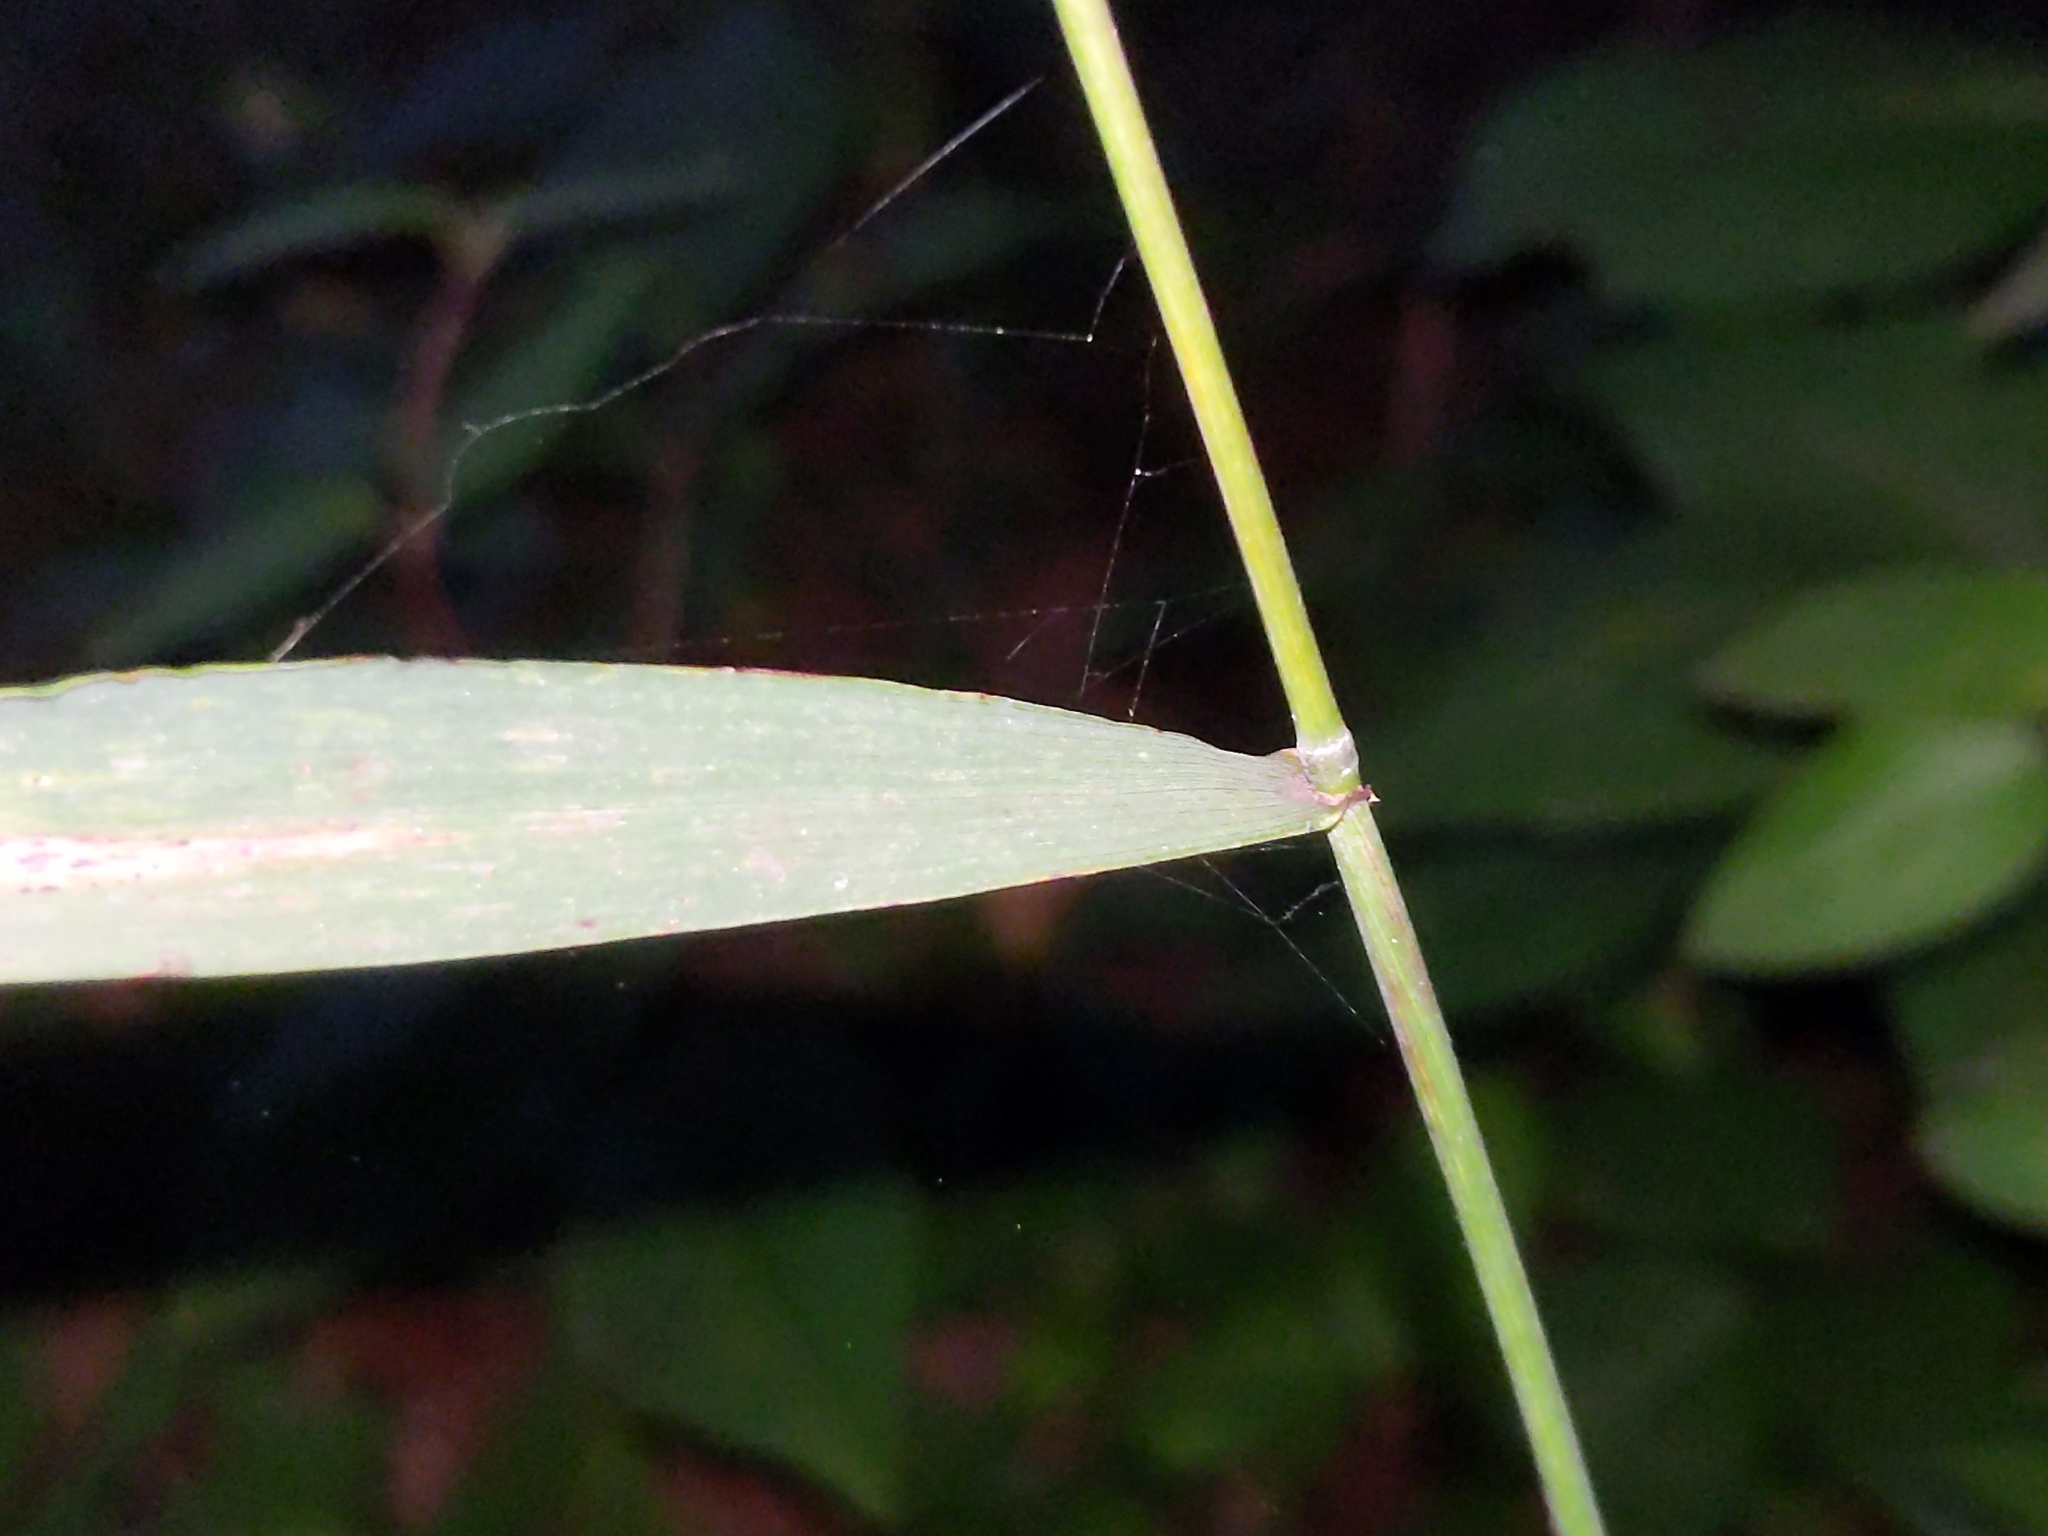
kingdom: Plantae
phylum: Tracheophyta
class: Liliopsida
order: Poales
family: Poaceae
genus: Elymus
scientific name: Elymus hystrix
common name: Bottlebrush grass
